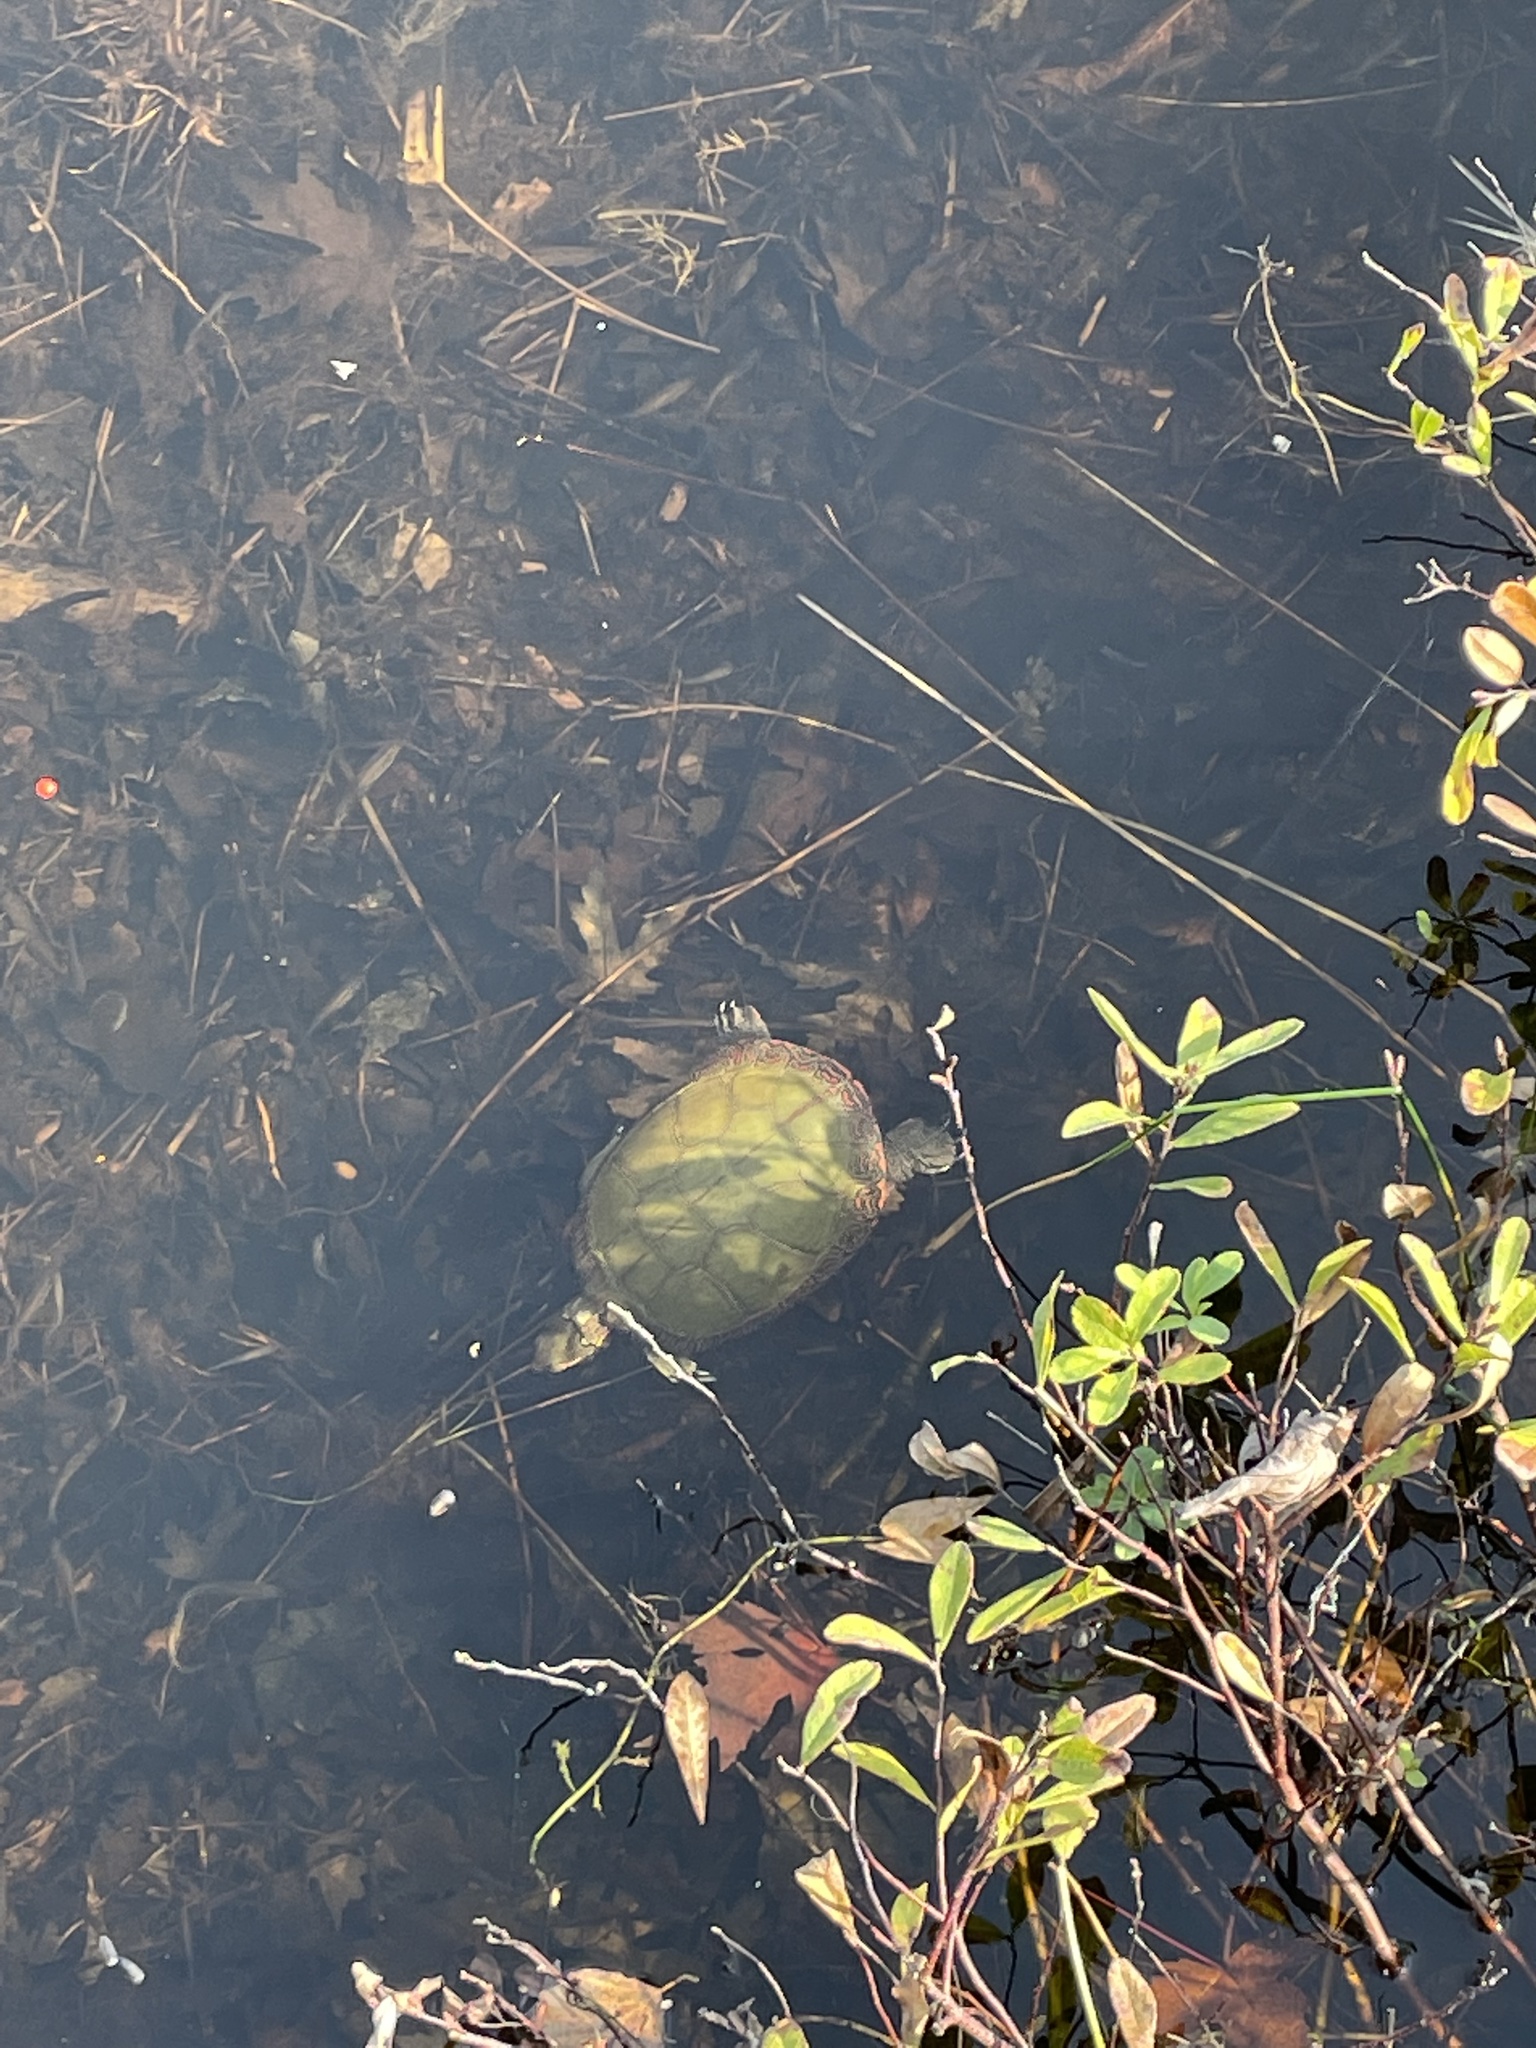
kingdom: Animalia
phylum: Chordata
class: Testudines
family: Emydidae
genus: Chrysemys
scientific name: Chrysemys picta
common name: Painted turtle
